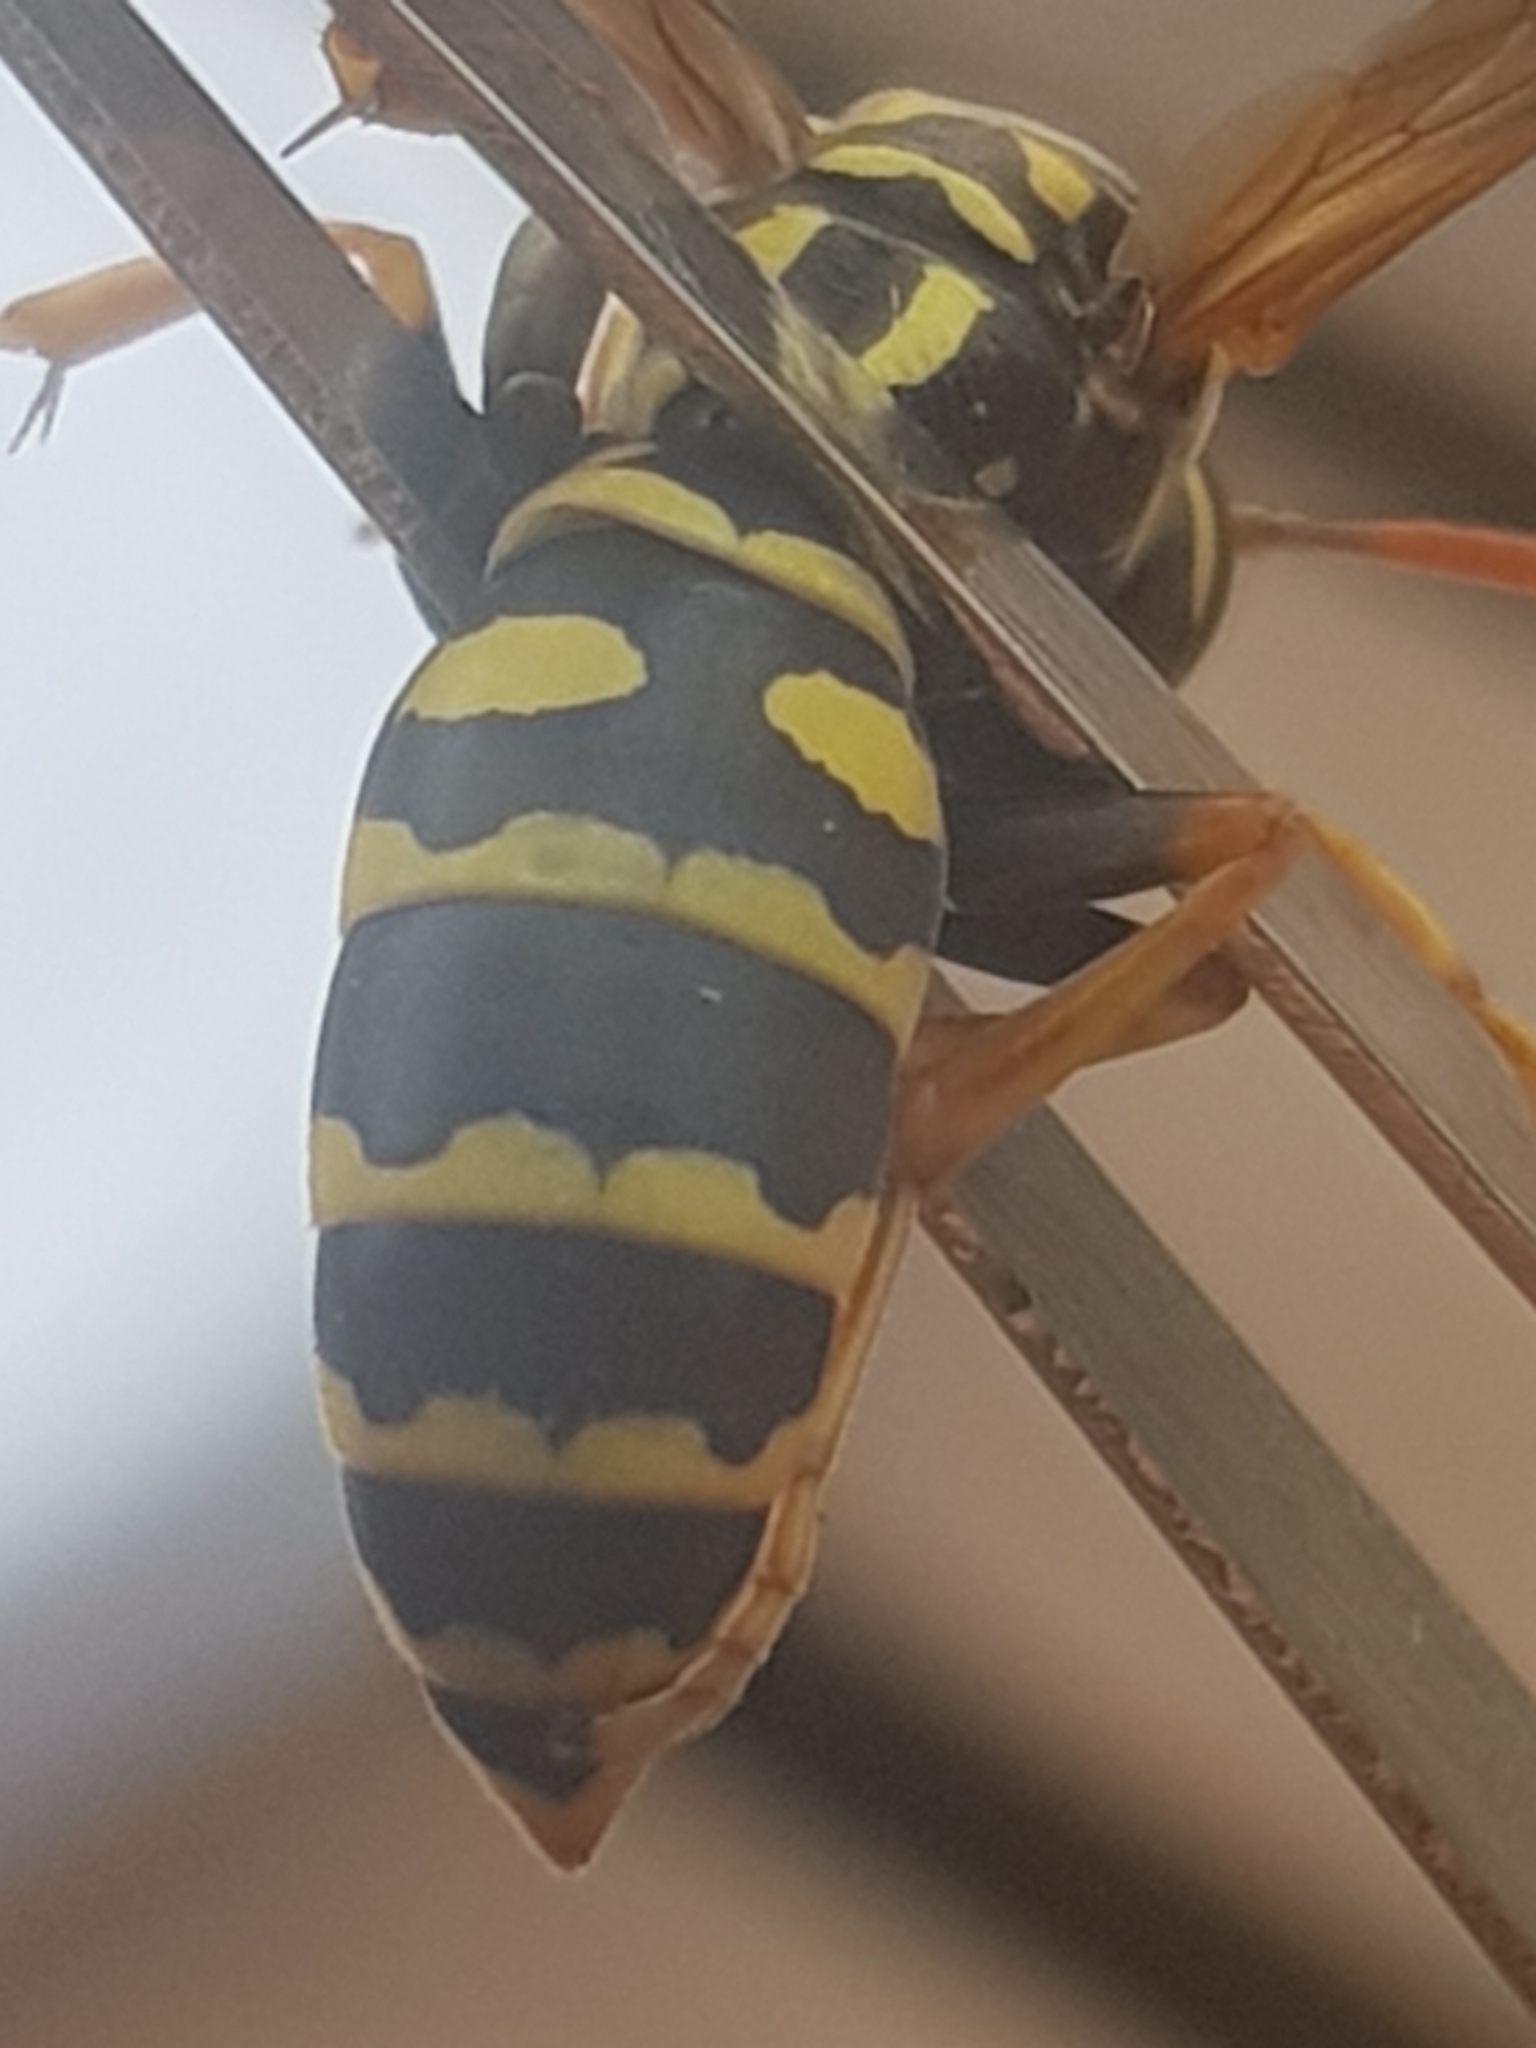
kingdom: Animalia
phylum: Arthropoda
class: Insecta
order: Hymenoptera
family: Eumenidae
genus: Polistes
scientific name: Polistes dominula
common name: Paper wasp
